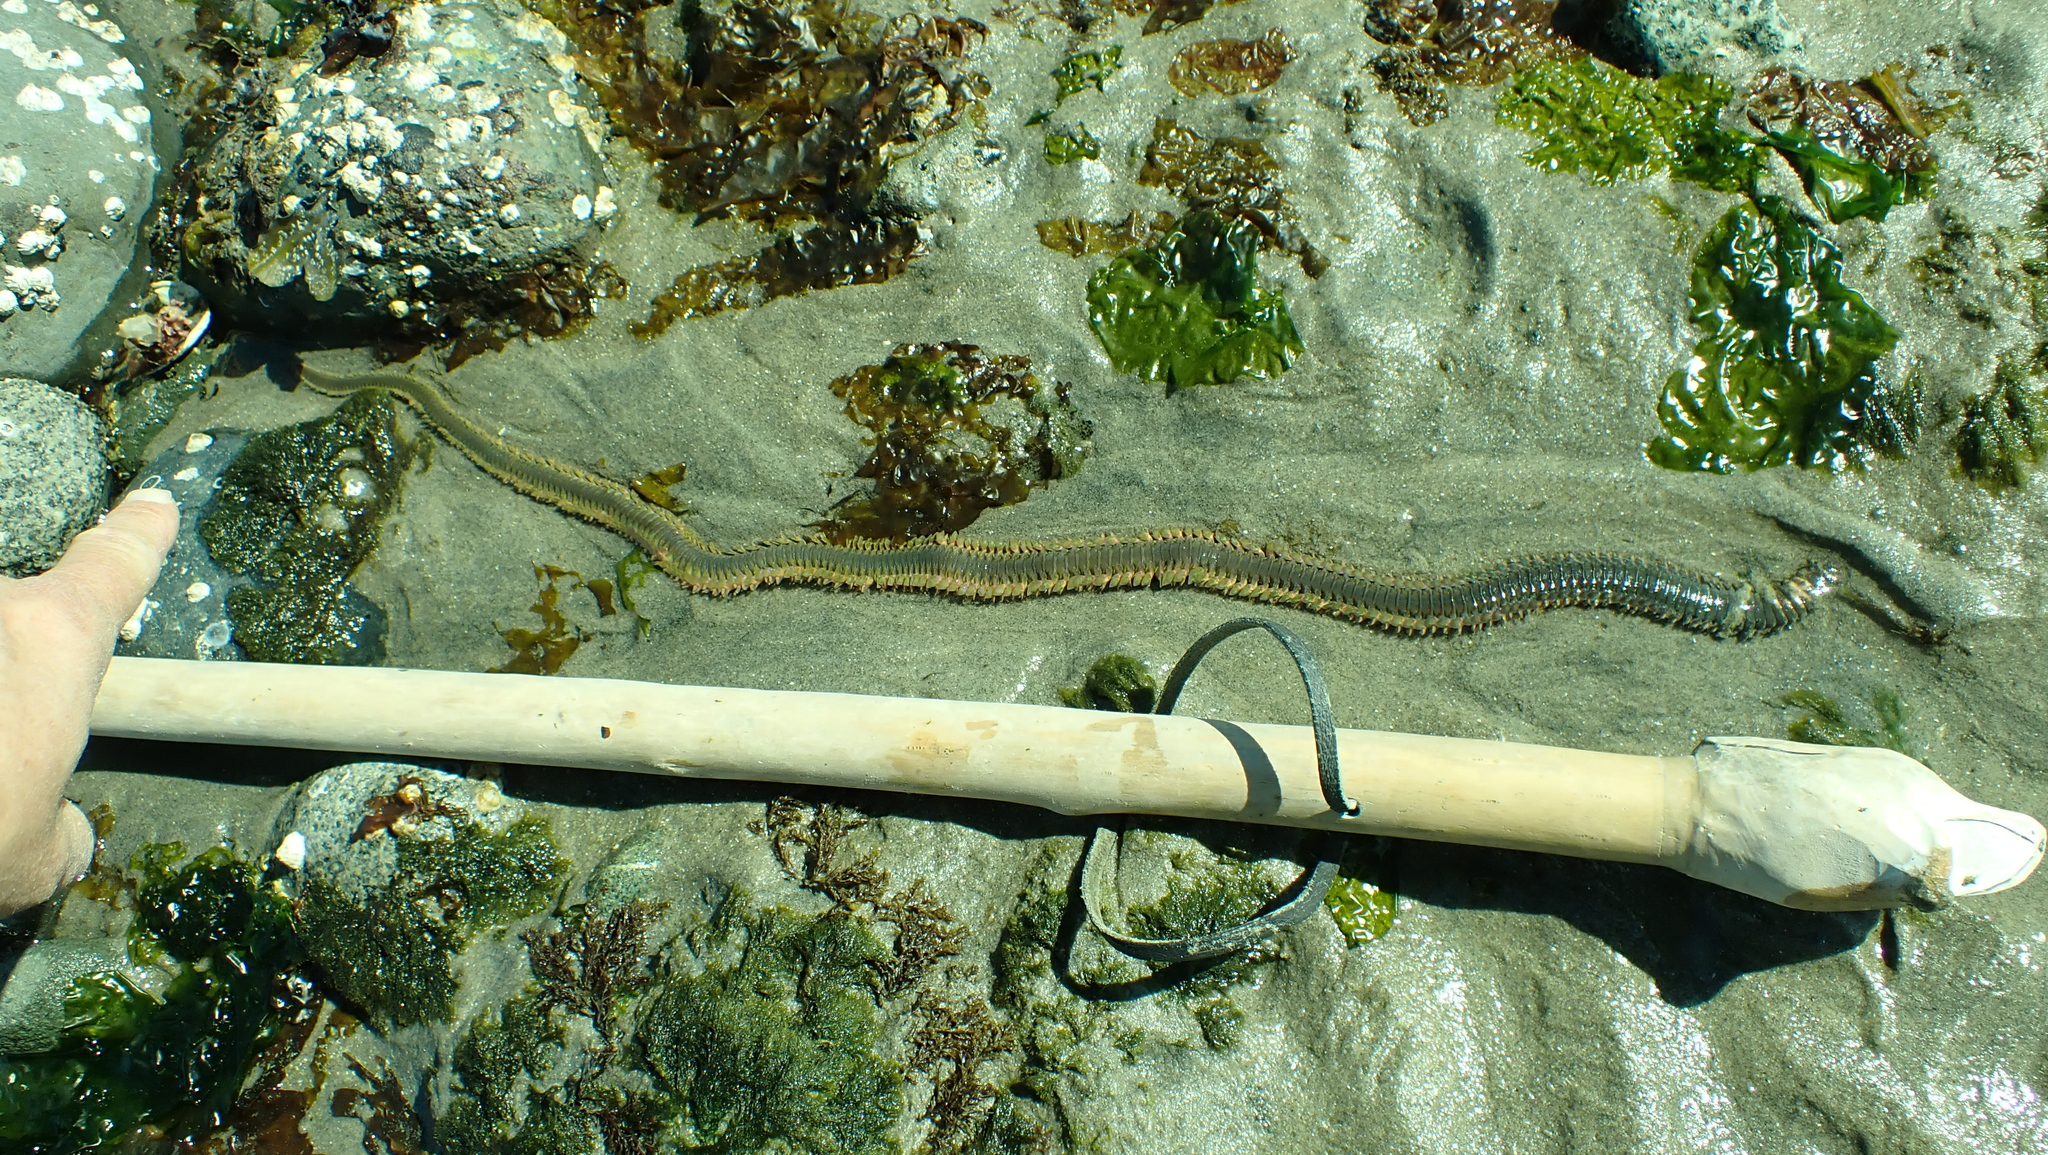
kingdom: Animalia
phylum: Annelida
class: Polychaeta
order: Phyllodocida
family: Nereididae
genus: Alitta
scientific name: Alitta williami
